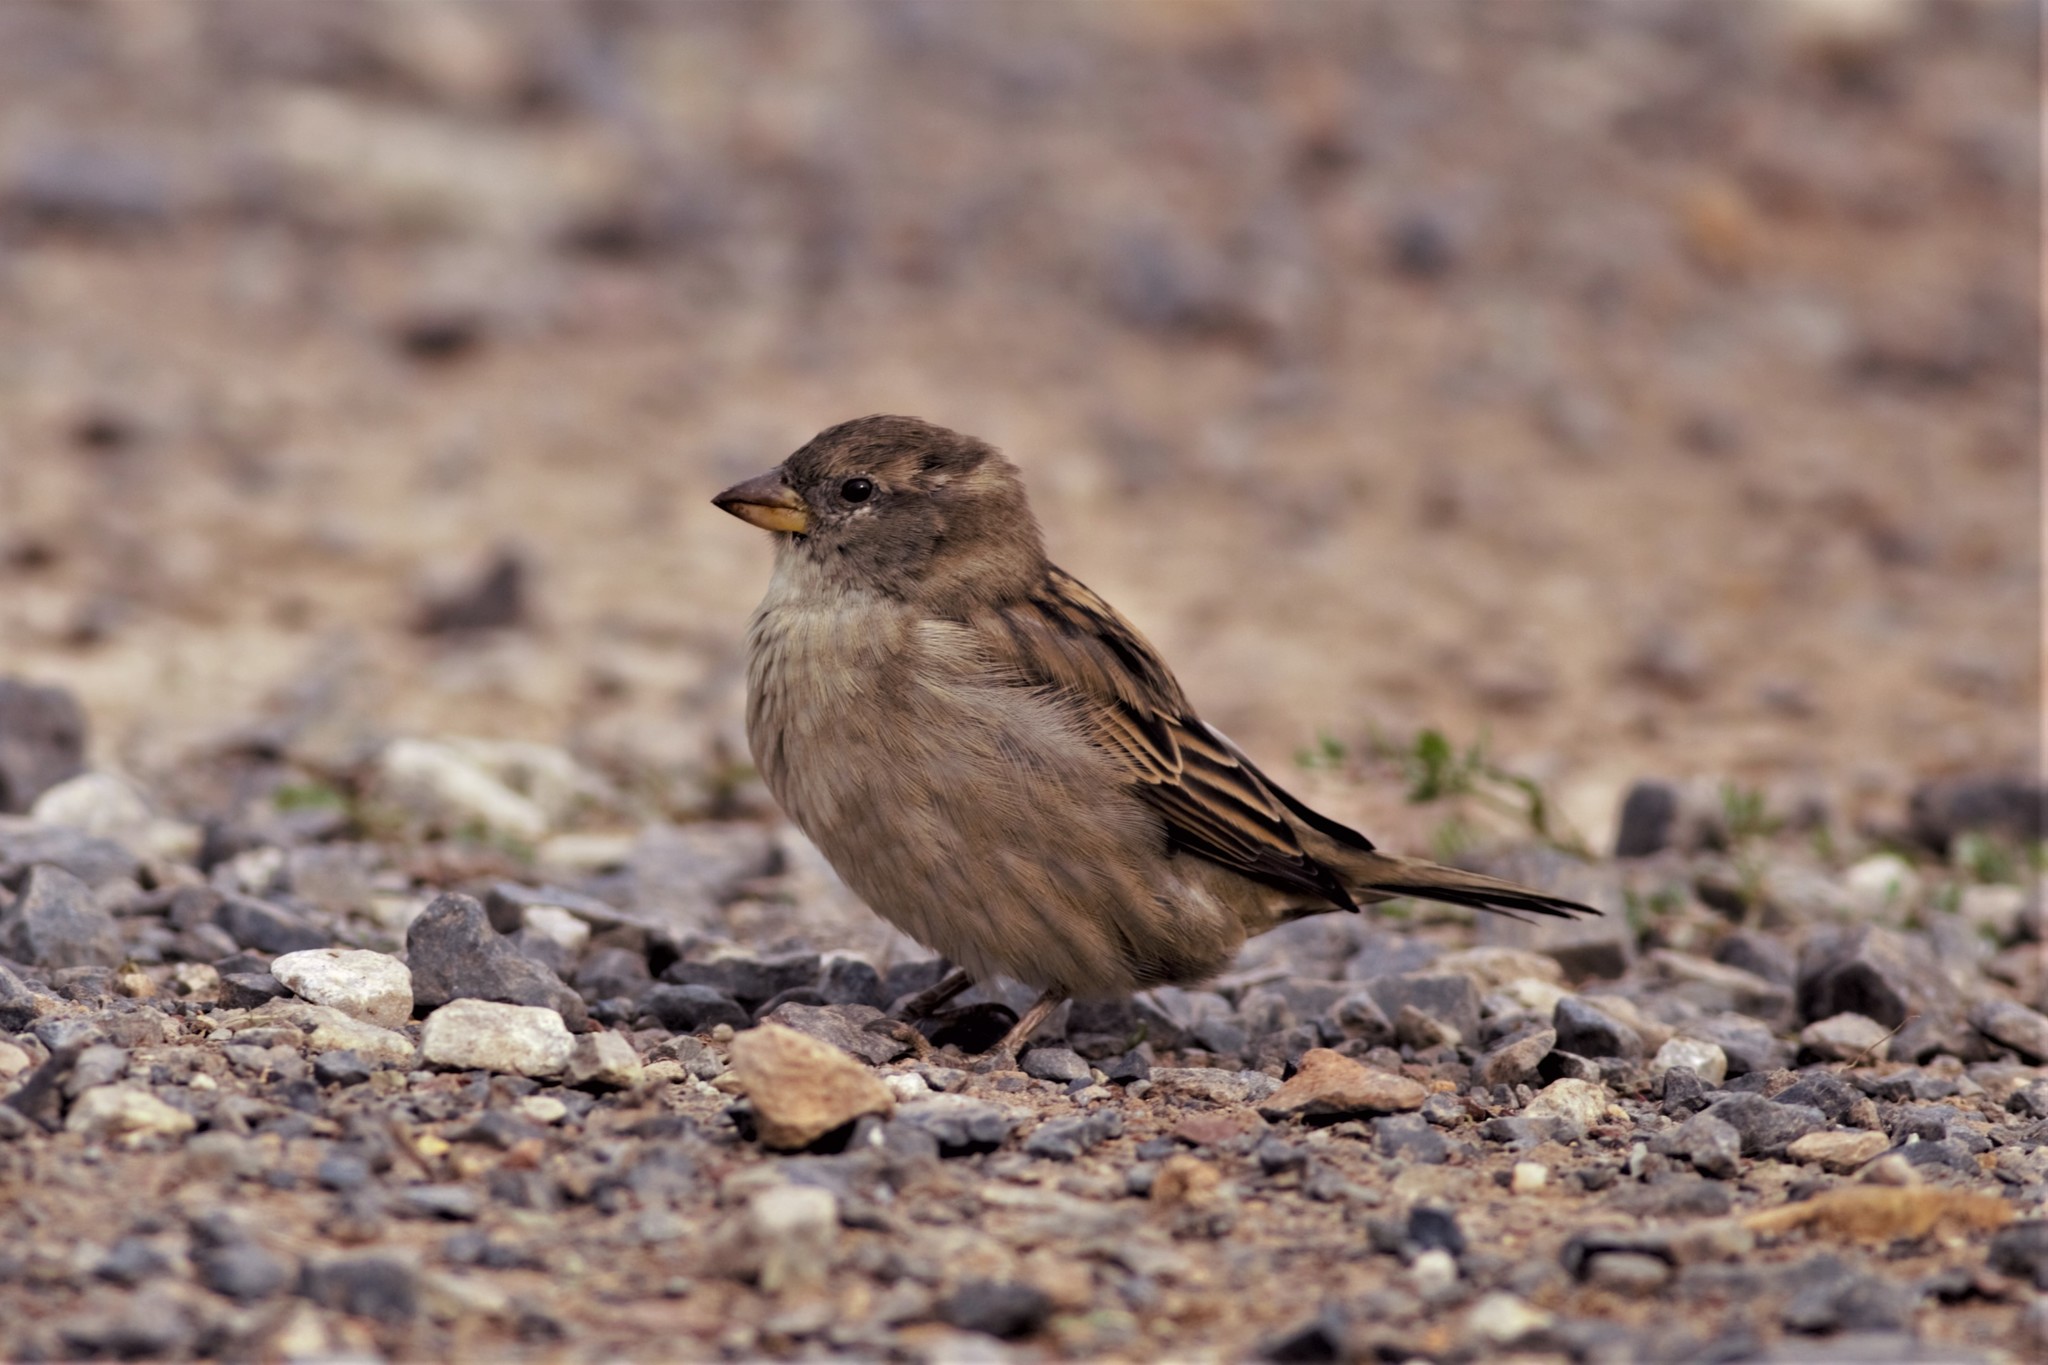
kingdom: Animalia
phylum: Chordata
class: Aves
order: Passeriformes
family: Passeridae
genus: Passer
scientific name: Passer domesticus
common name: House sparrow
